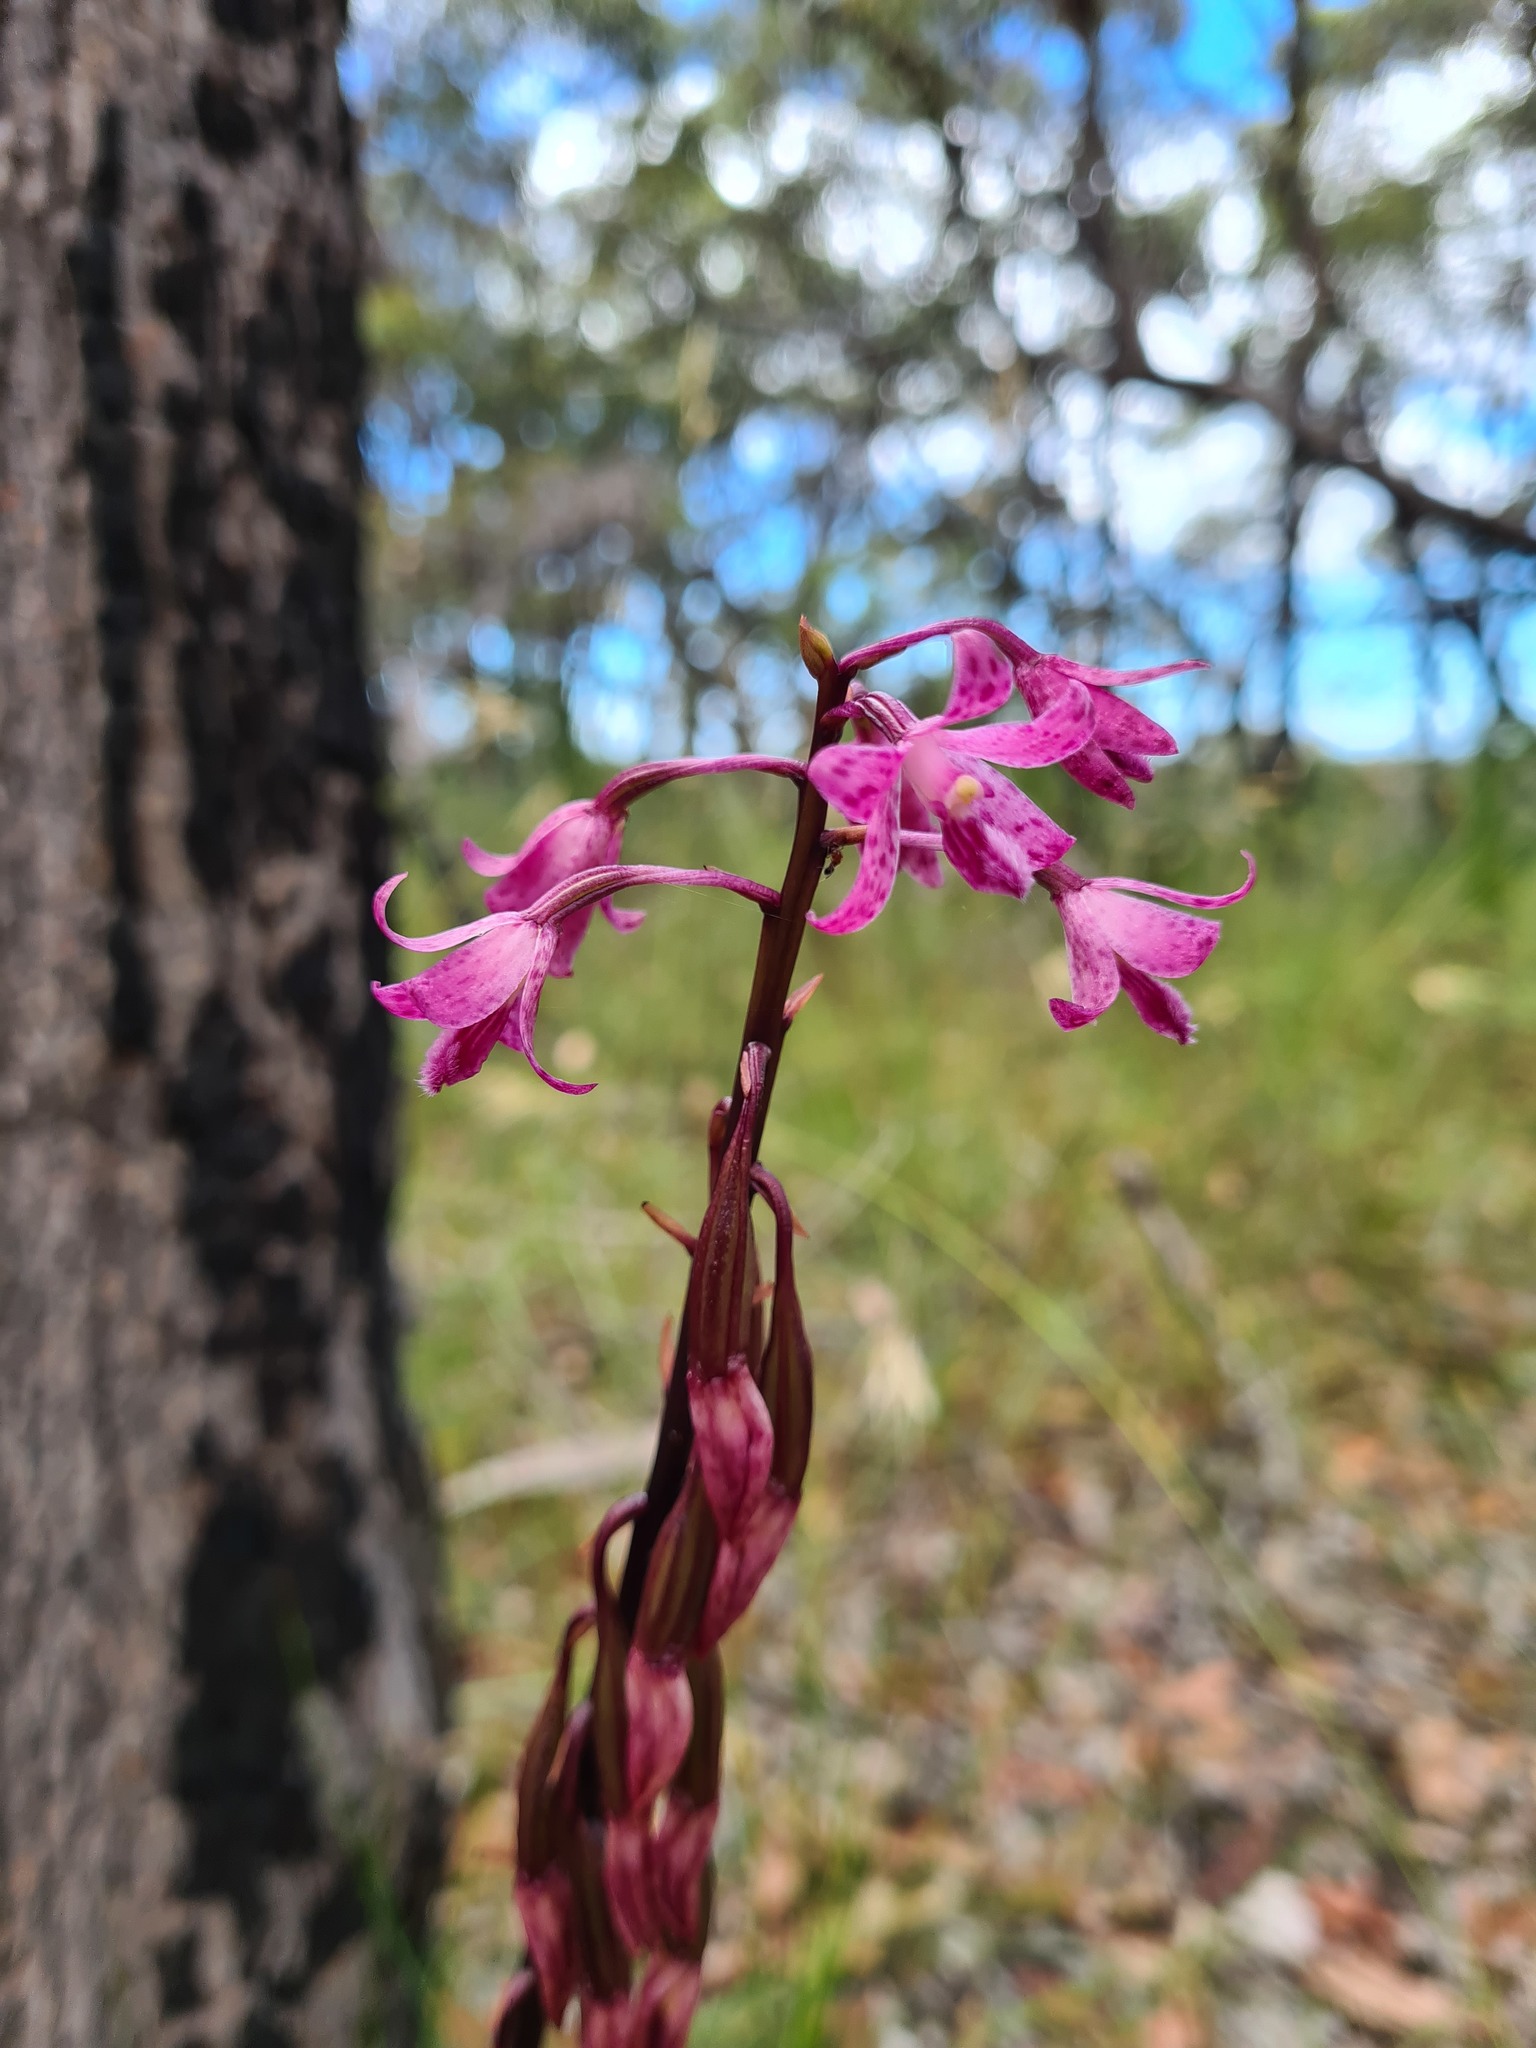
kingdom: Plantae
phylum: Tracheophyta
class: Liliopsida
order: Asparagales
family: Orchidaceae
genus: Dipodium
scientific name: Dipodium roseum
